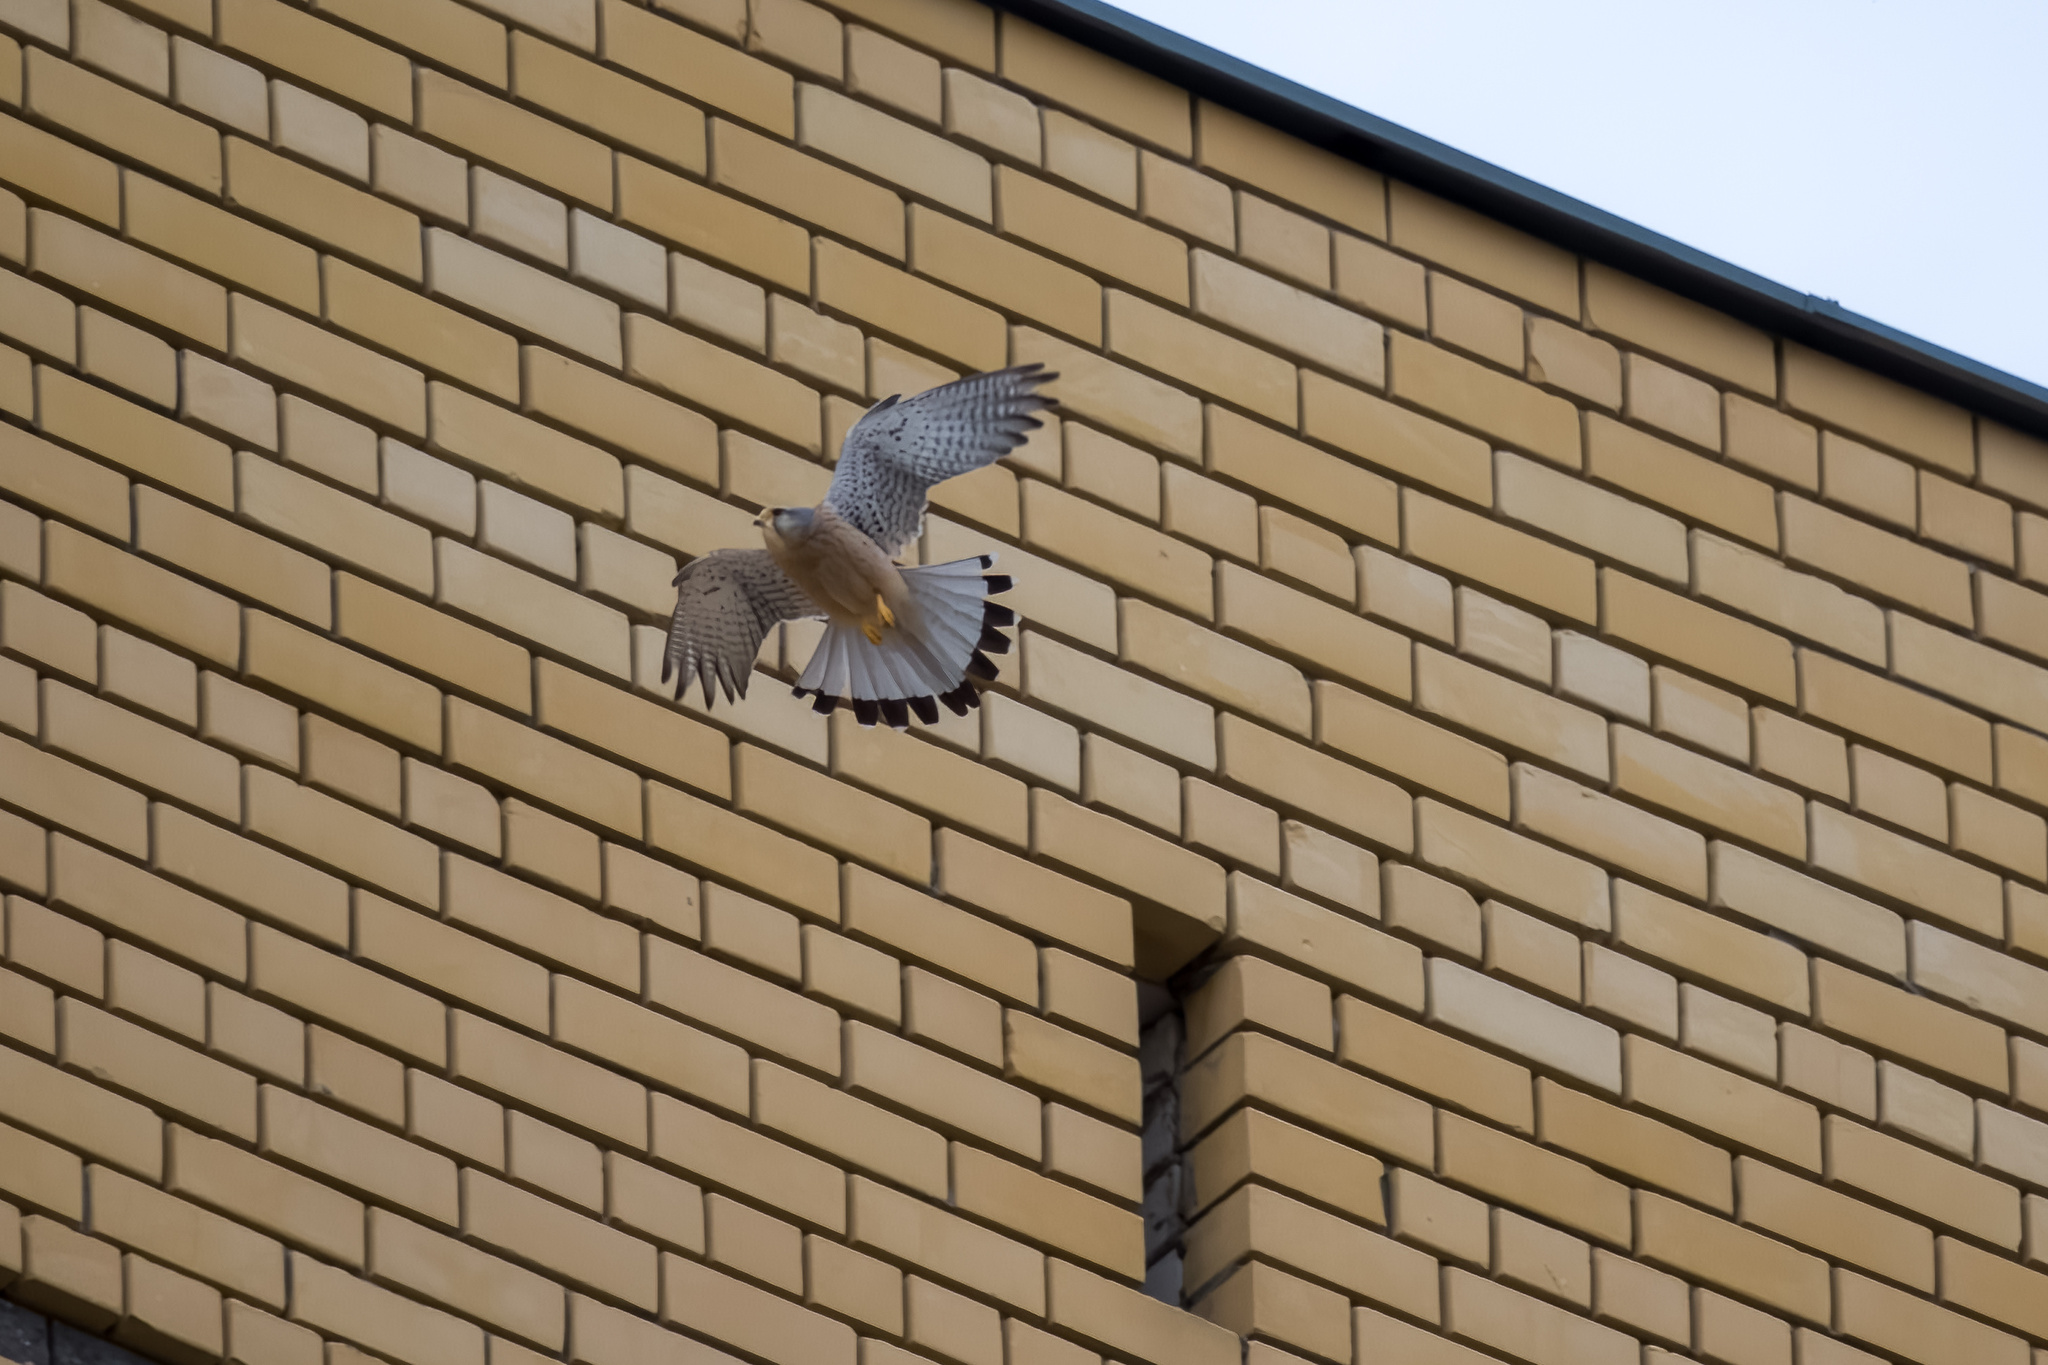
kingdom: Animalia
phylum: Chordata
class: Aves
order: Falconiformes
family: Falconidae
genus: Falco
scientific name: Falco tinnunculus
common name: Common kestrel
